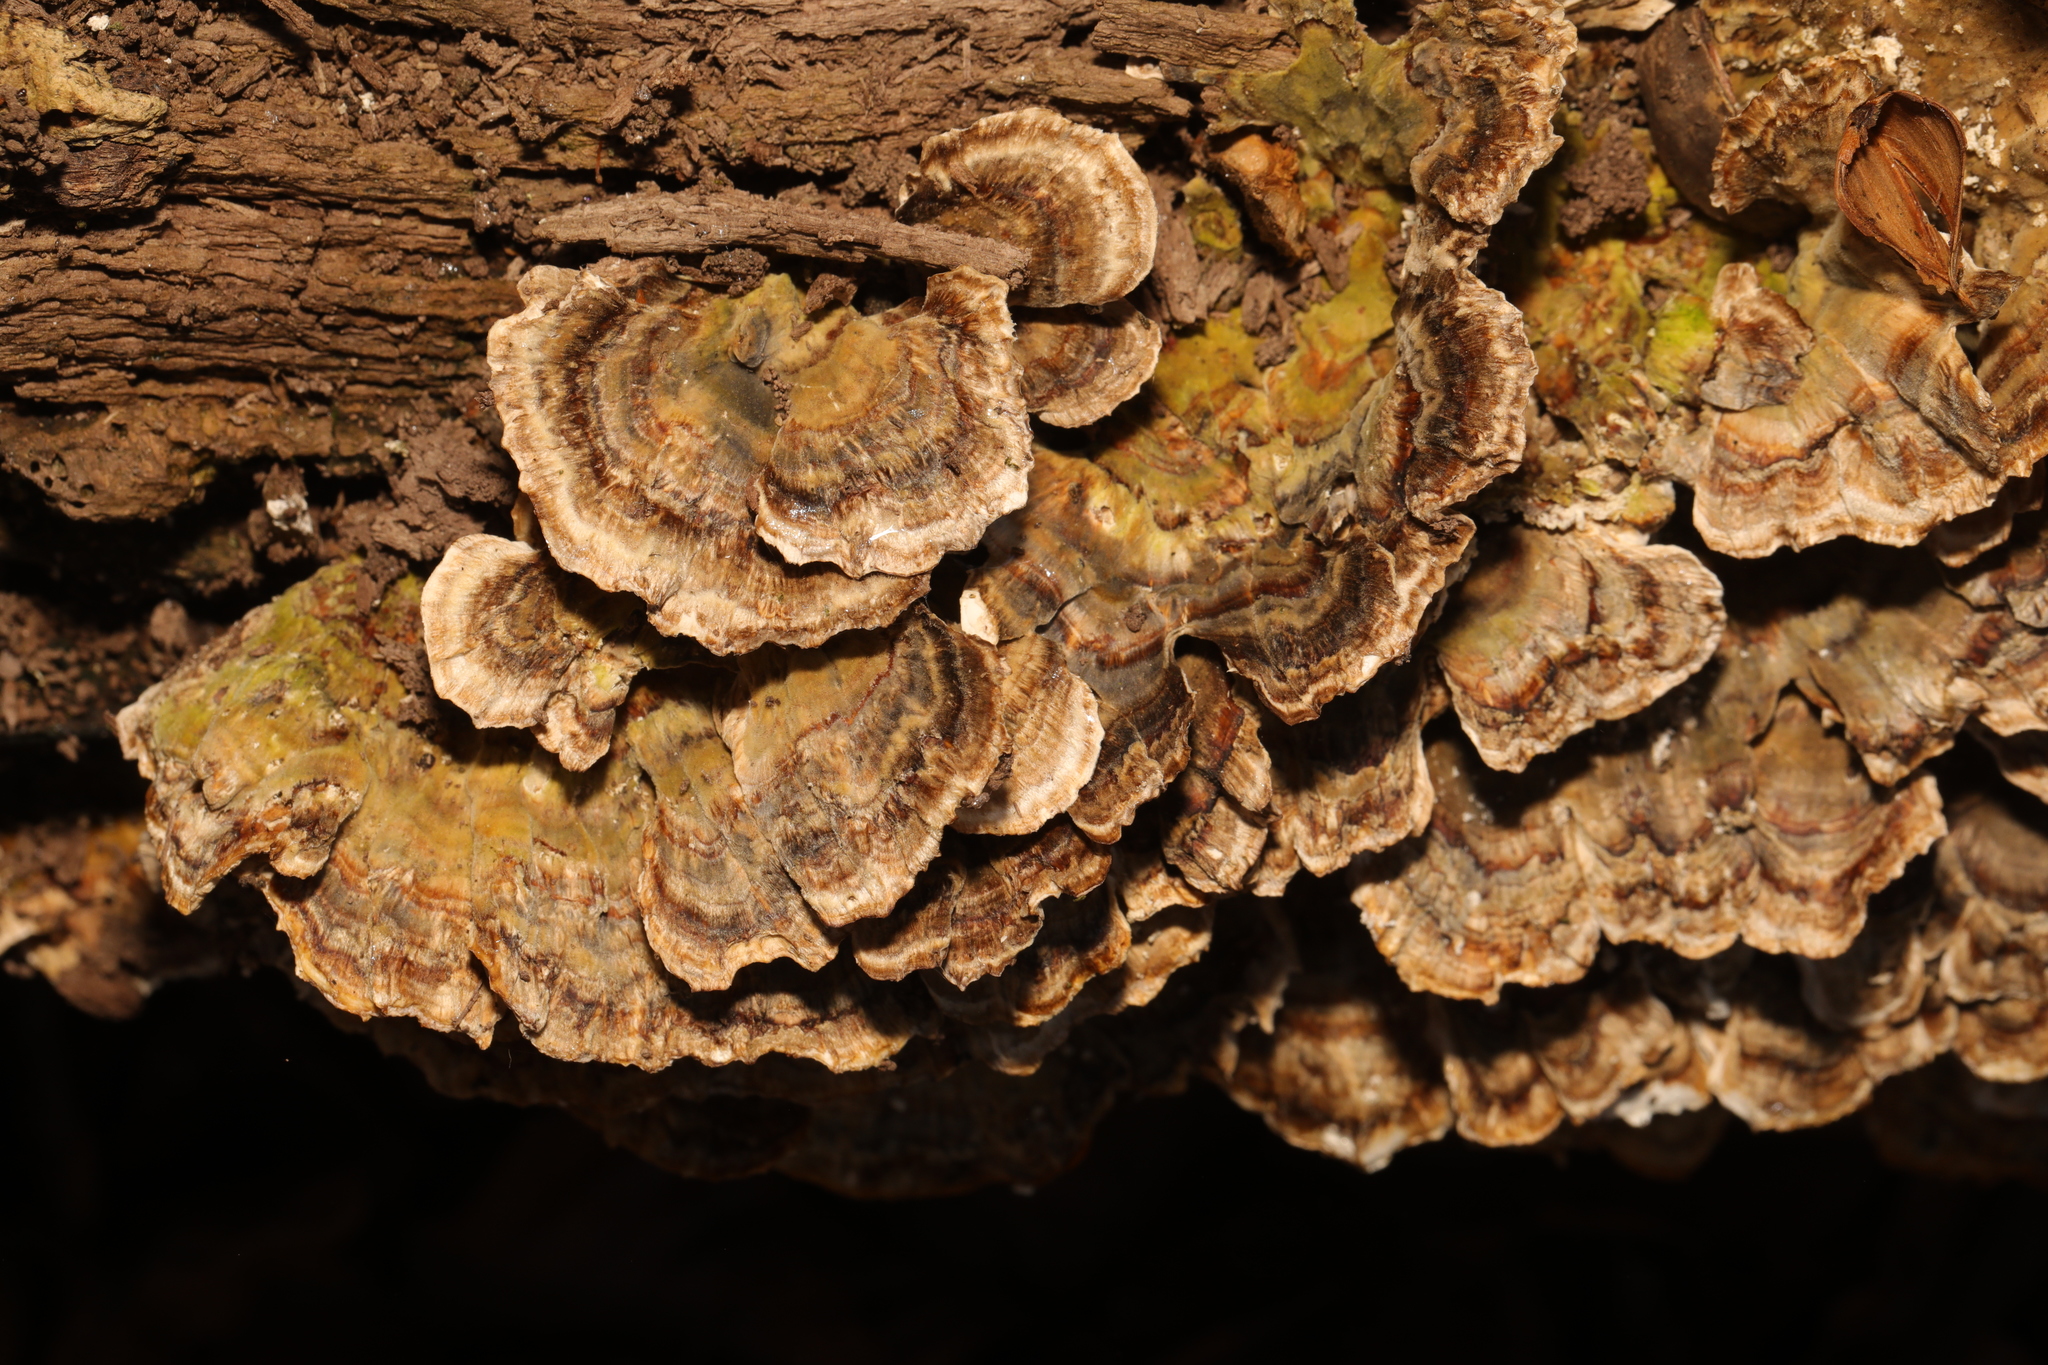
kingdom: Fungi
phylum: Basidiomycota
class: Agaricomycetes
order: Polyporales
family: Polyporaceae
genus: Trametes
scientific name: Trametes versicolor
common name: Turkeytail
